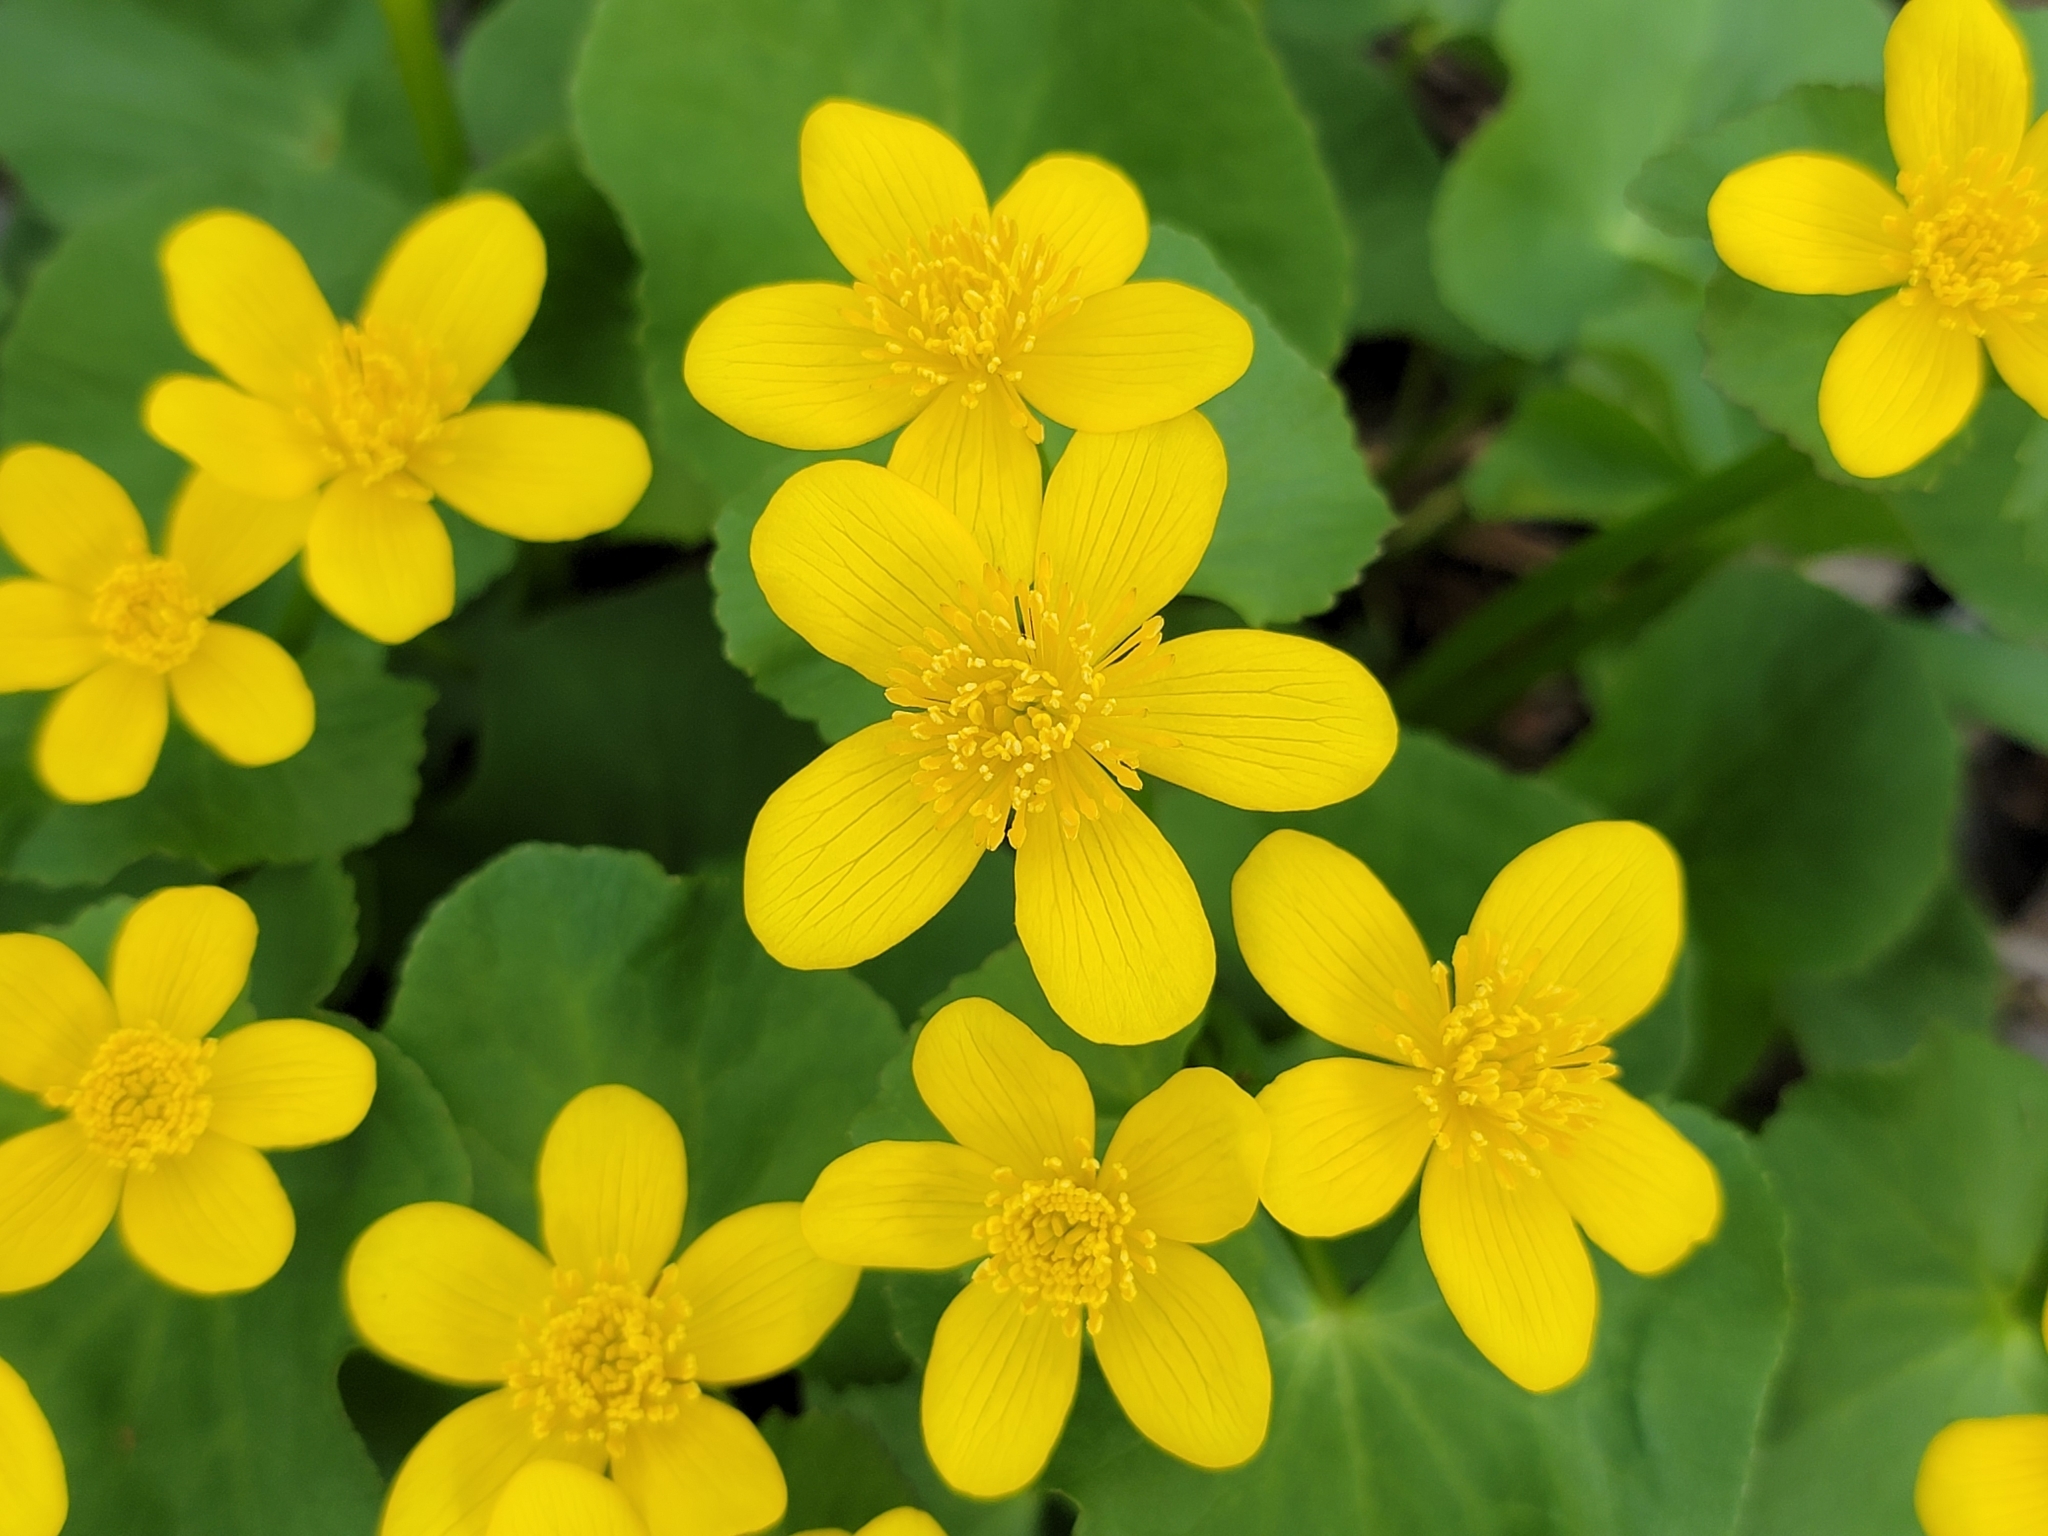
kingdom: Plantae
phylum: Tracheophyta
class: Magnoliopsida
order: Ranunculales
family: Ranunculaceae
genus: Caltha
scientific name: Caltha palustris
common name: Marsh marigold
